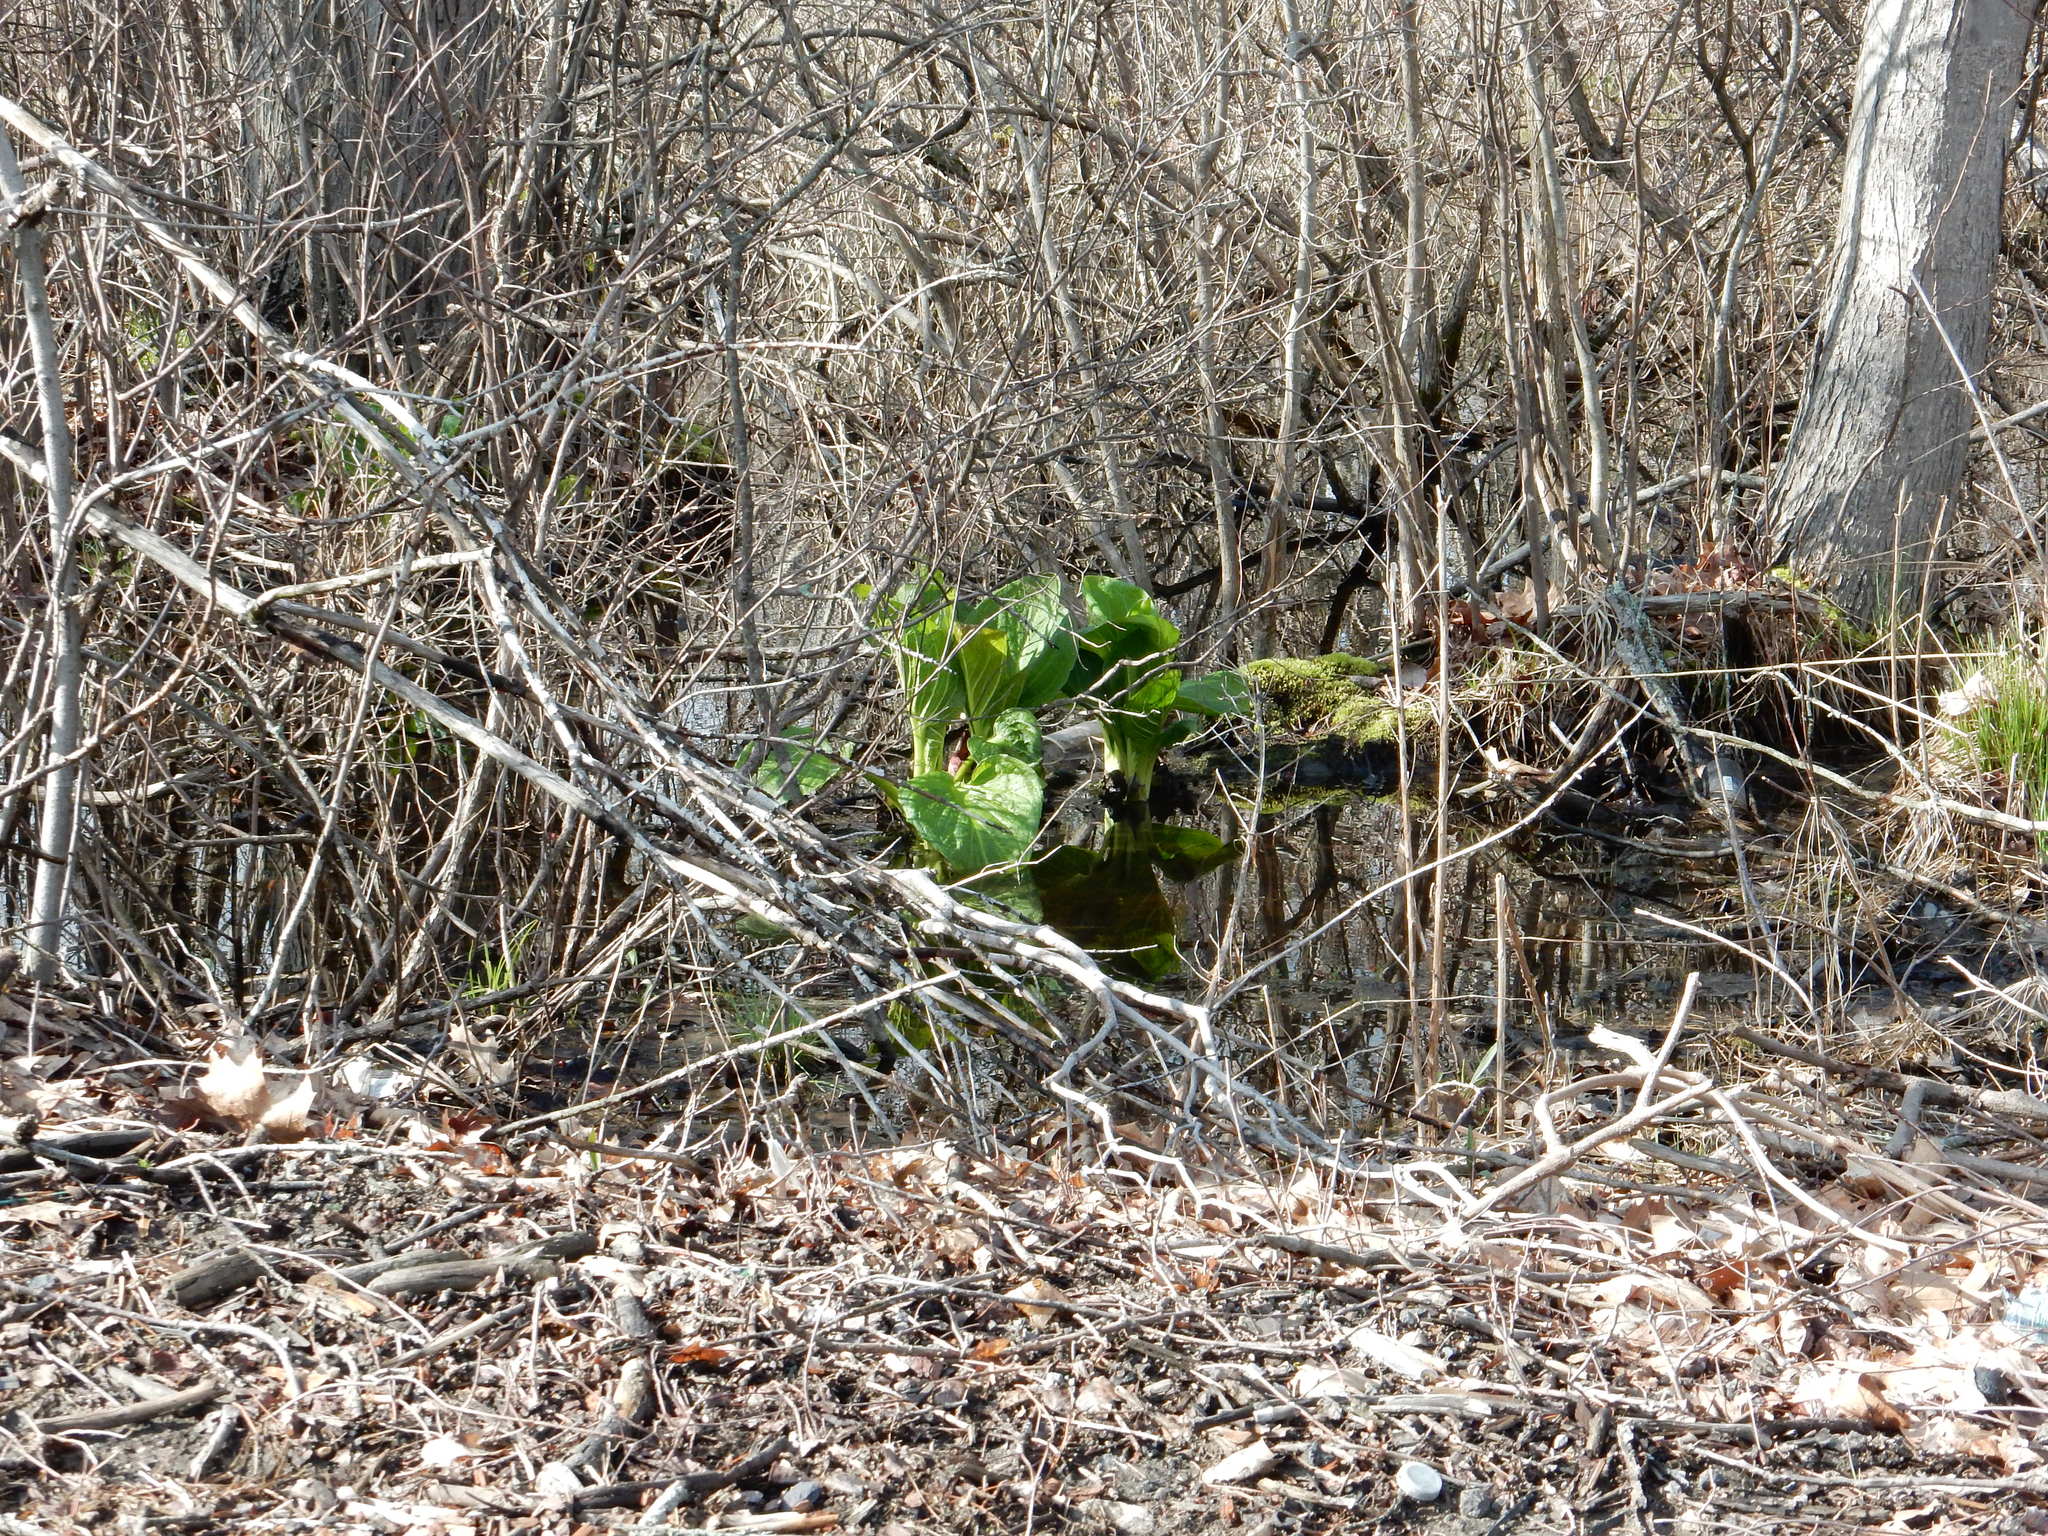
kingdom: Plantae
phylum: Tracheophyta
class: Liliopsida
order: Alismatales
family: Araceae
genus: Symplocarpus
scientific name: Symplocarpus foetidus
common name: Eastern skunk cabbage
